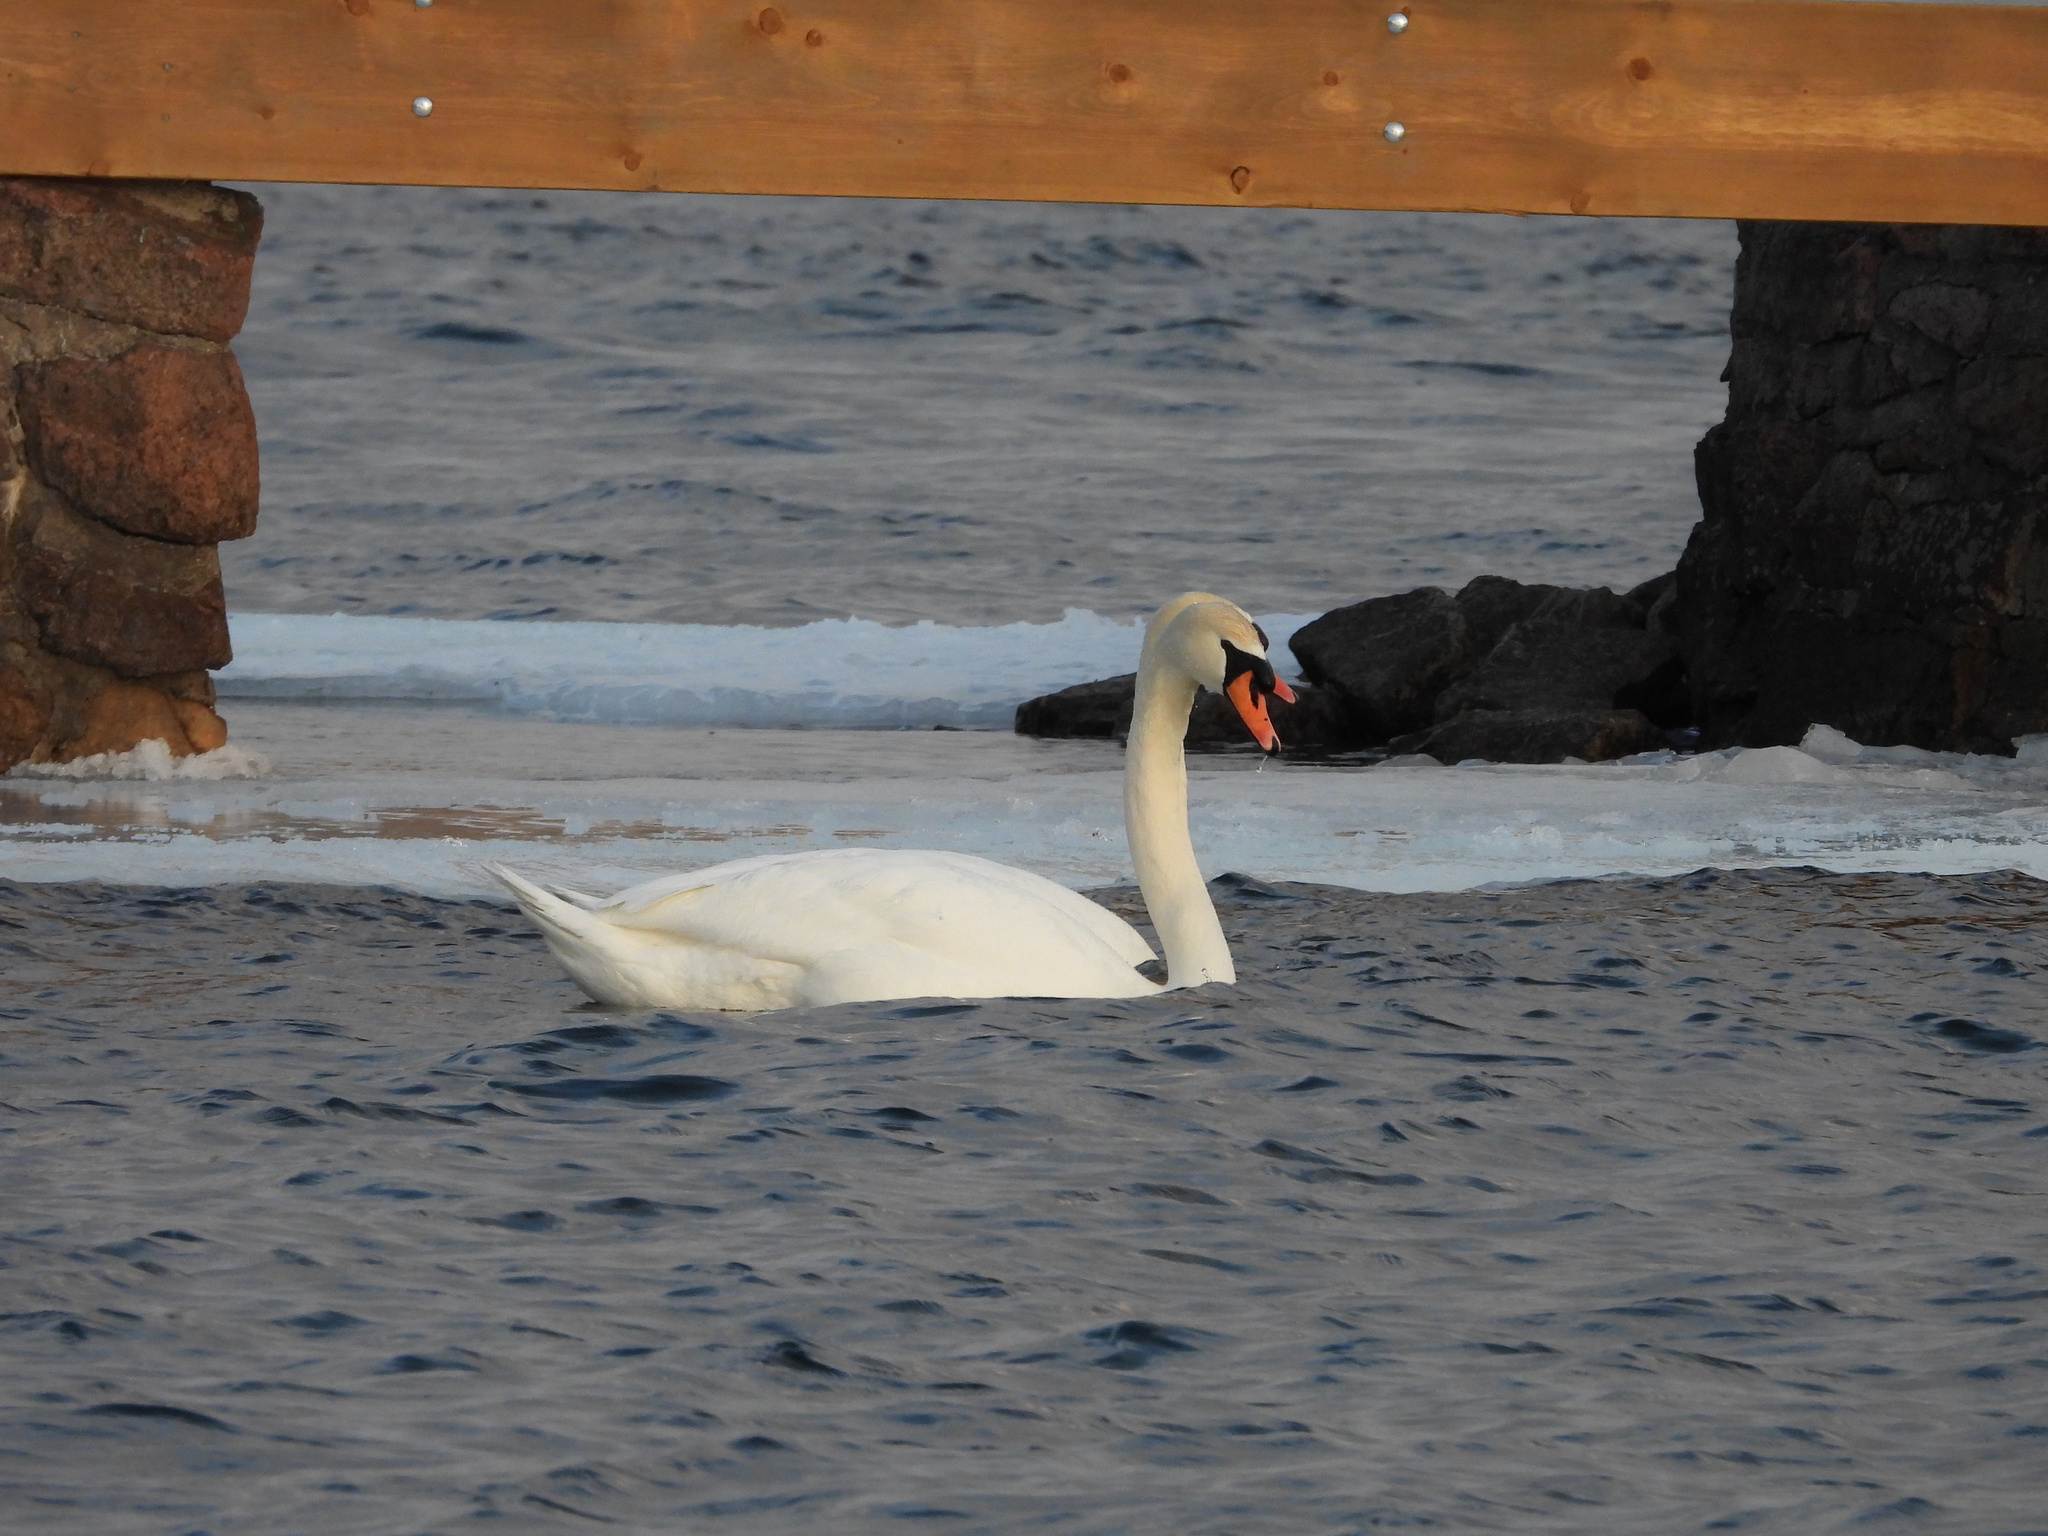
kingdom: Animalia
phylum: Chordata
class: Aves
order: Anseriformes
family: Anatidae
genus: Cygnus
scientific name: Cygnus olor
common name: Mute swan
